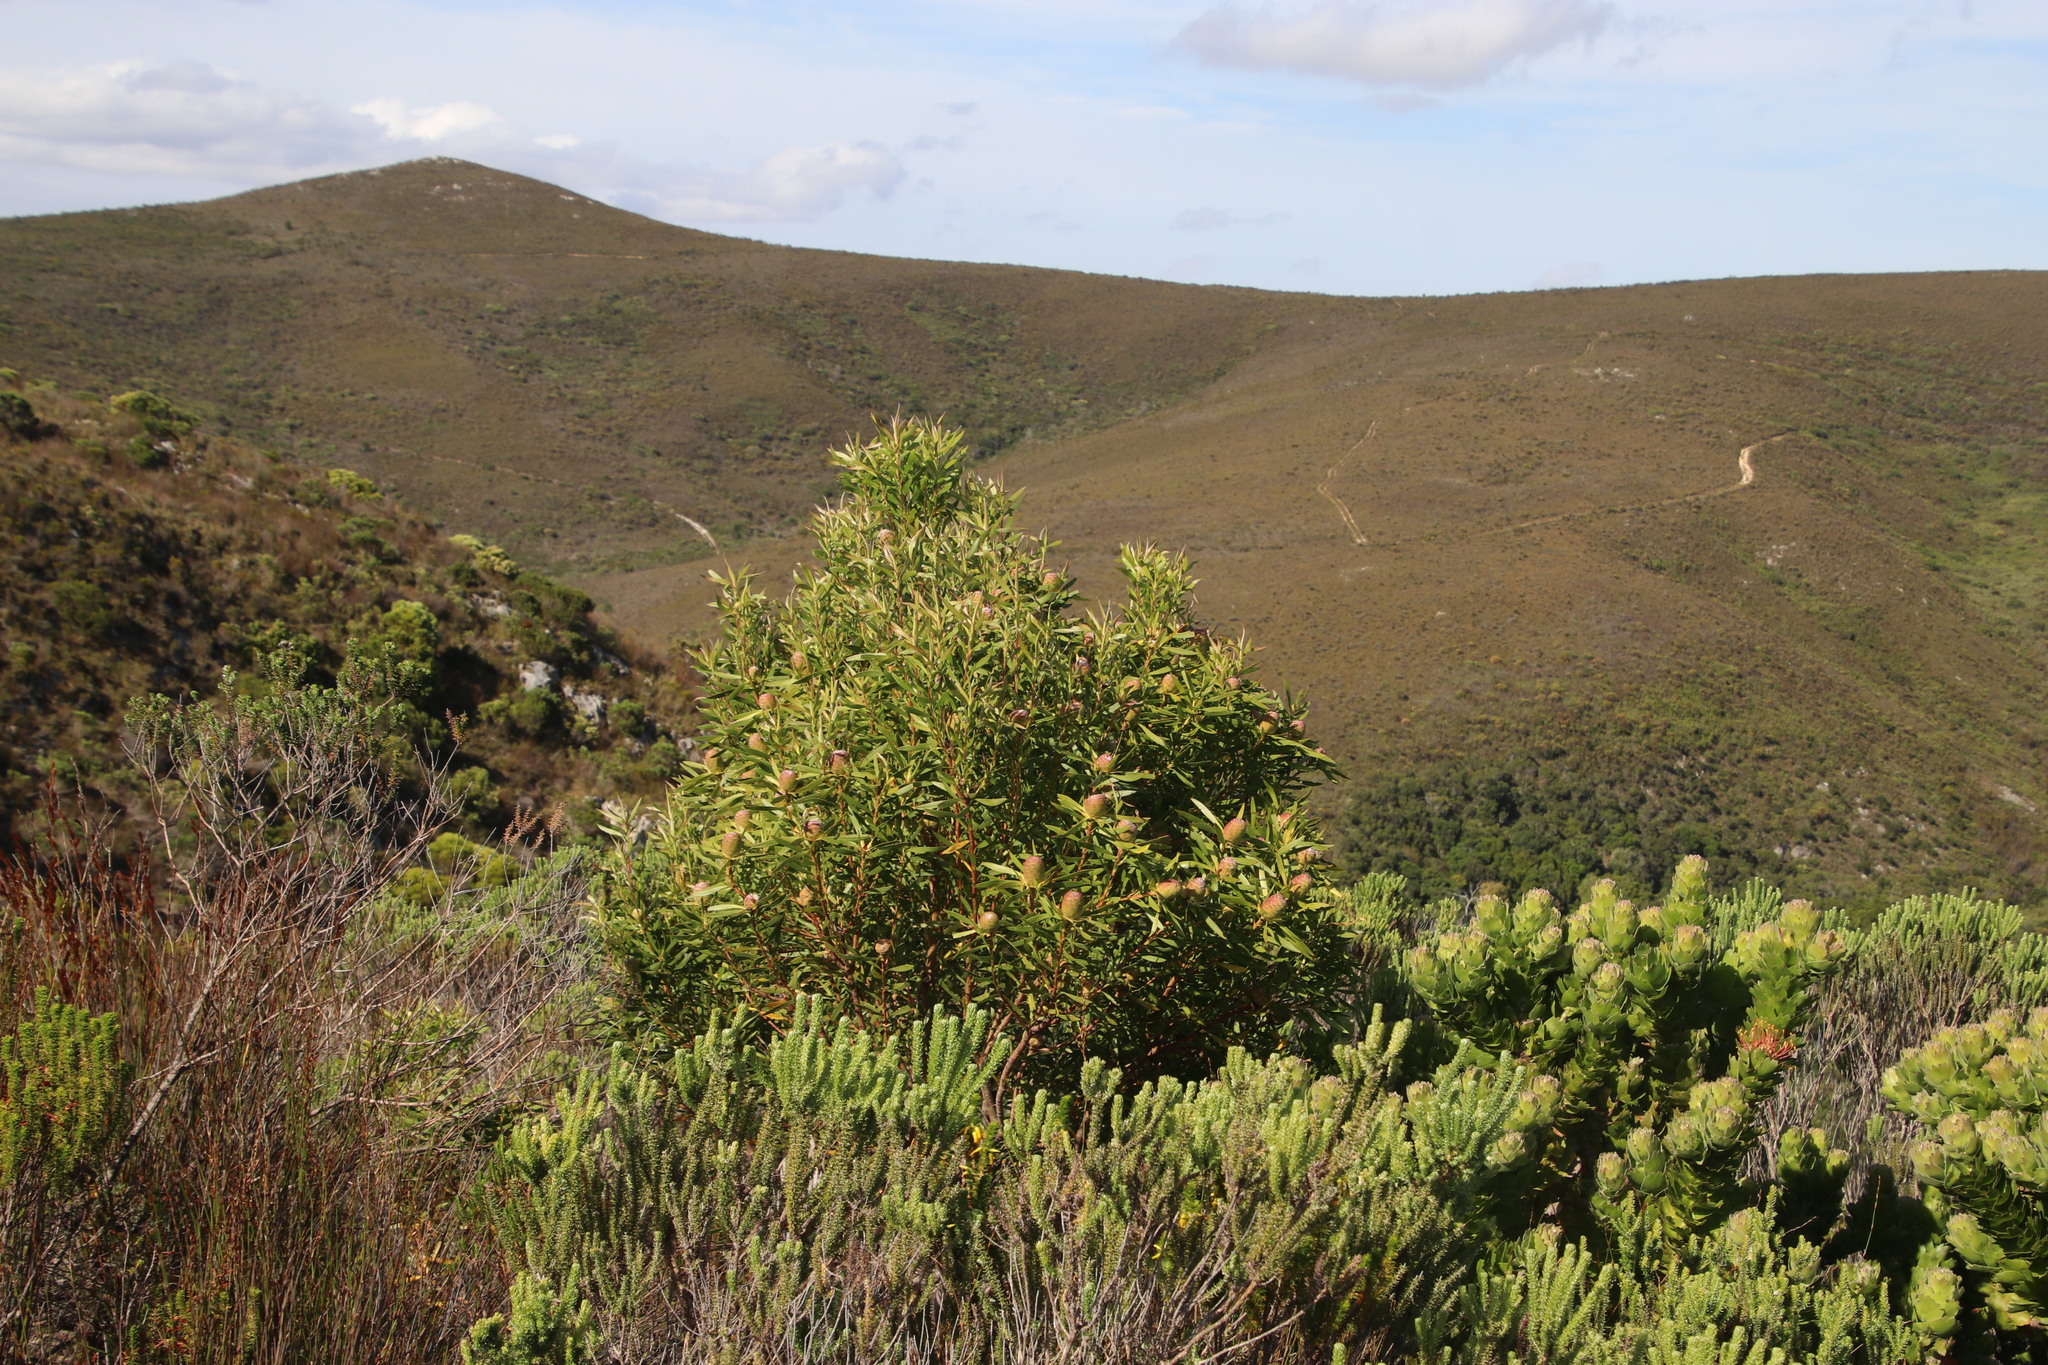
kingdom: Plantae
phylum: Tracheophyta
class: Magnoliopsida
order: Proteales
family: Proteaceae
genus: Leucadendron
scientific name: Leucadendron coniferum
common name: Dune conebush
